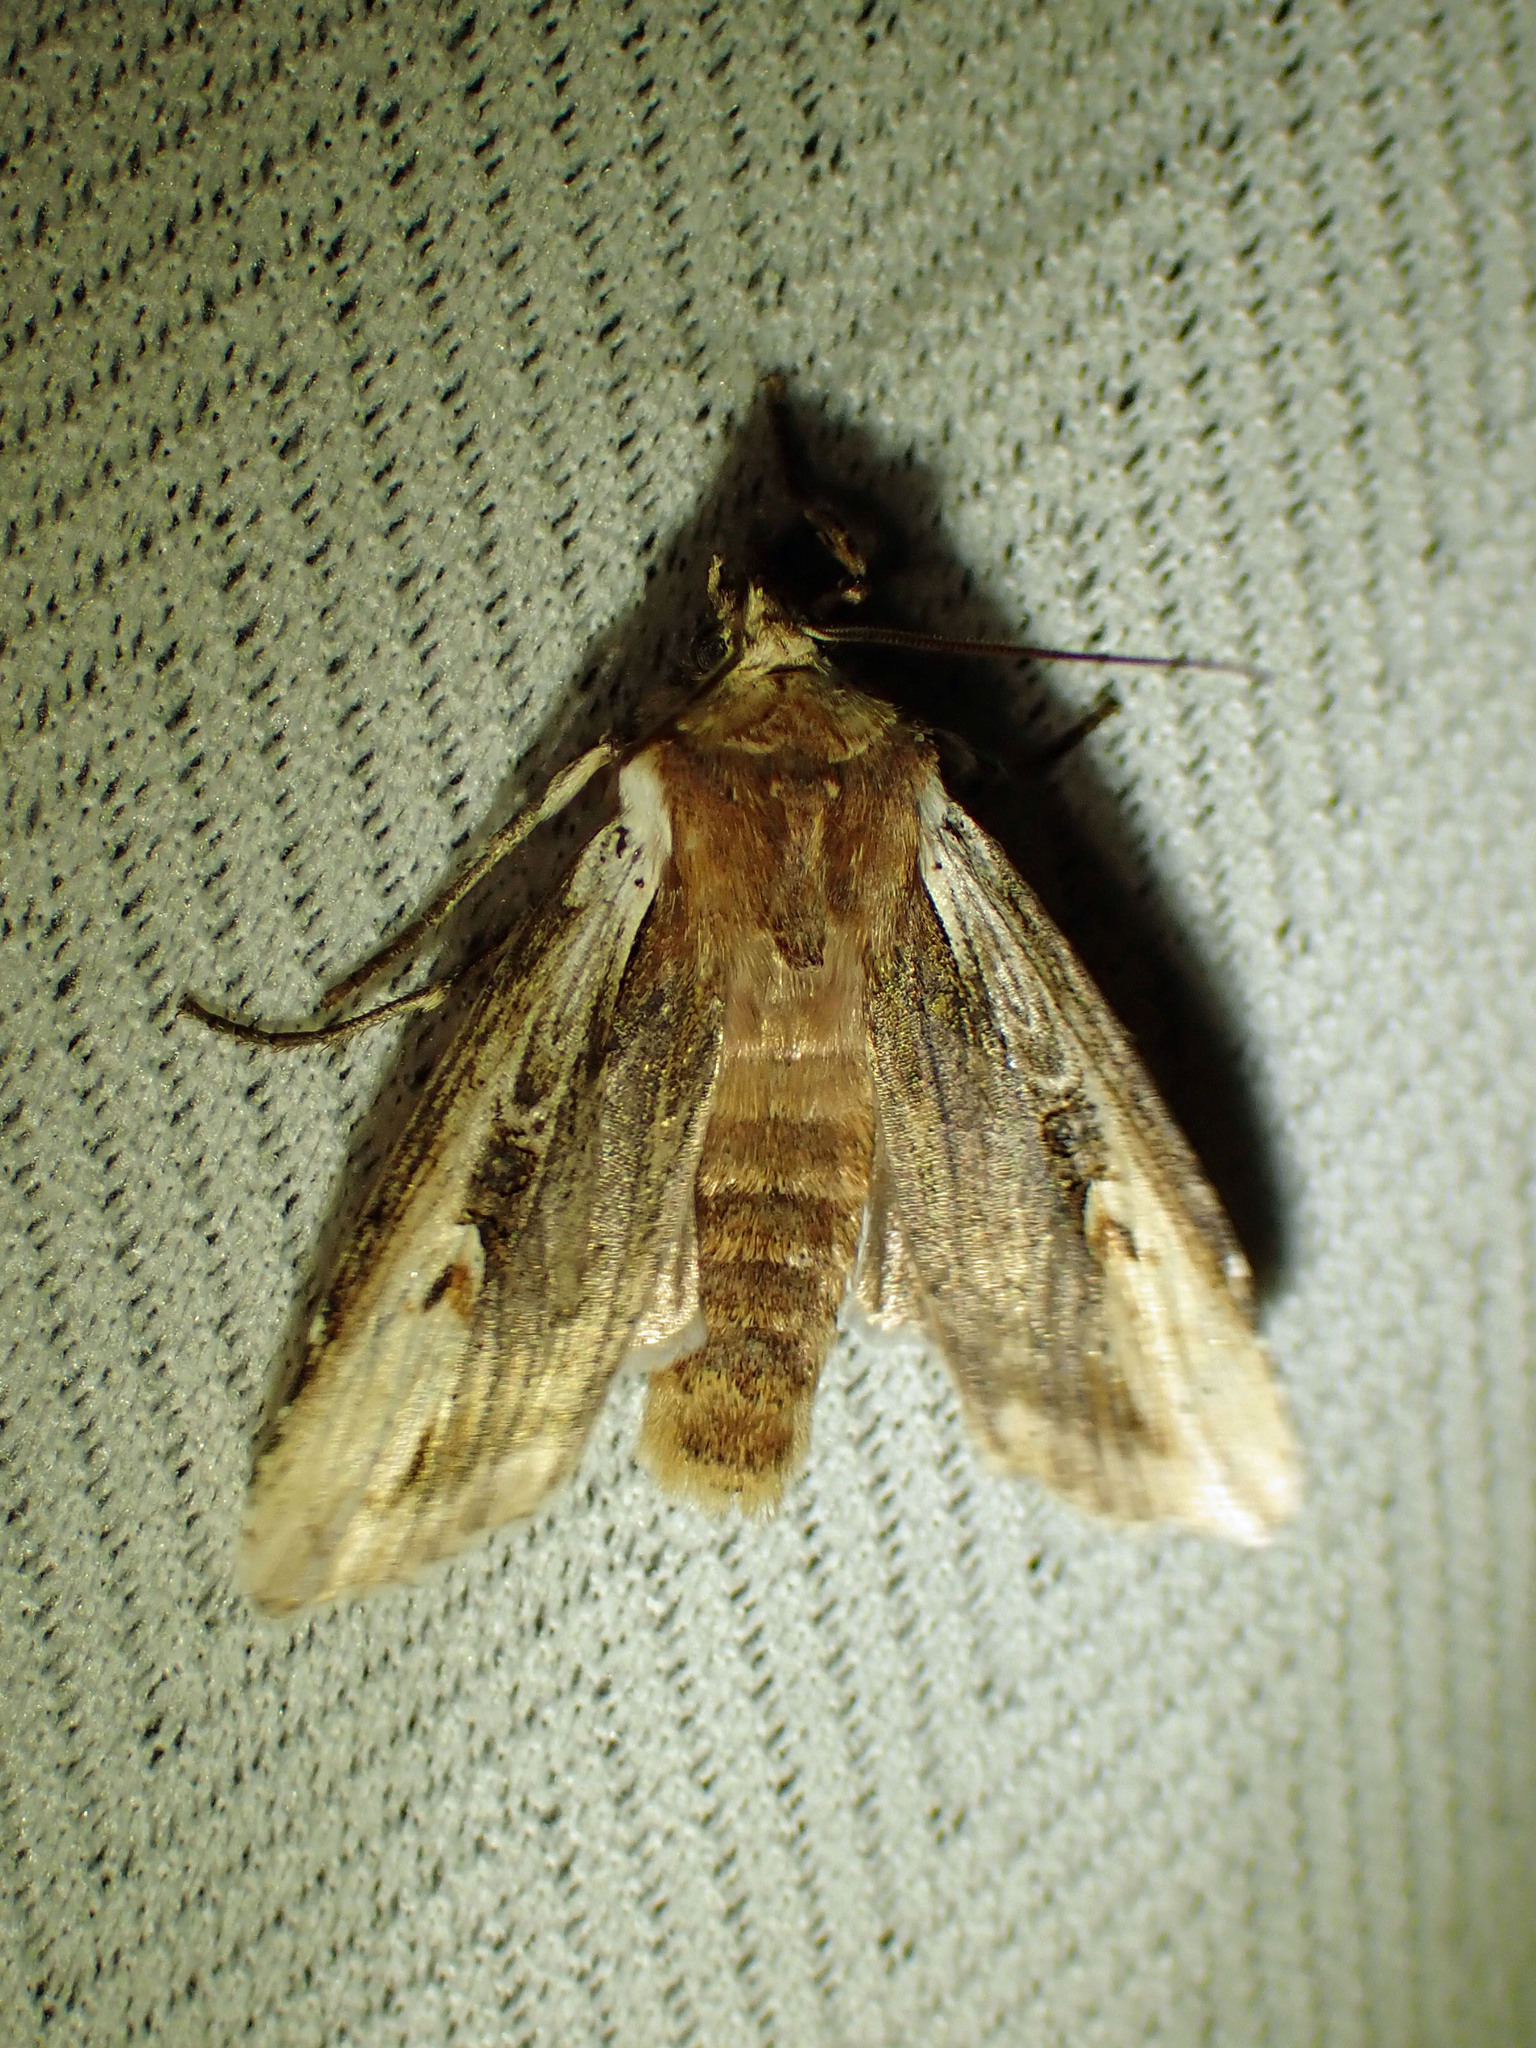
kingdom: Animalia
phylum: Arthropoda
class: Insecta
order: Lepidoptera
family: Noctuidae
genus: Xylena
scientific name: Xylena curvimacula
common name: Dot-and-dash swordgrass moth
